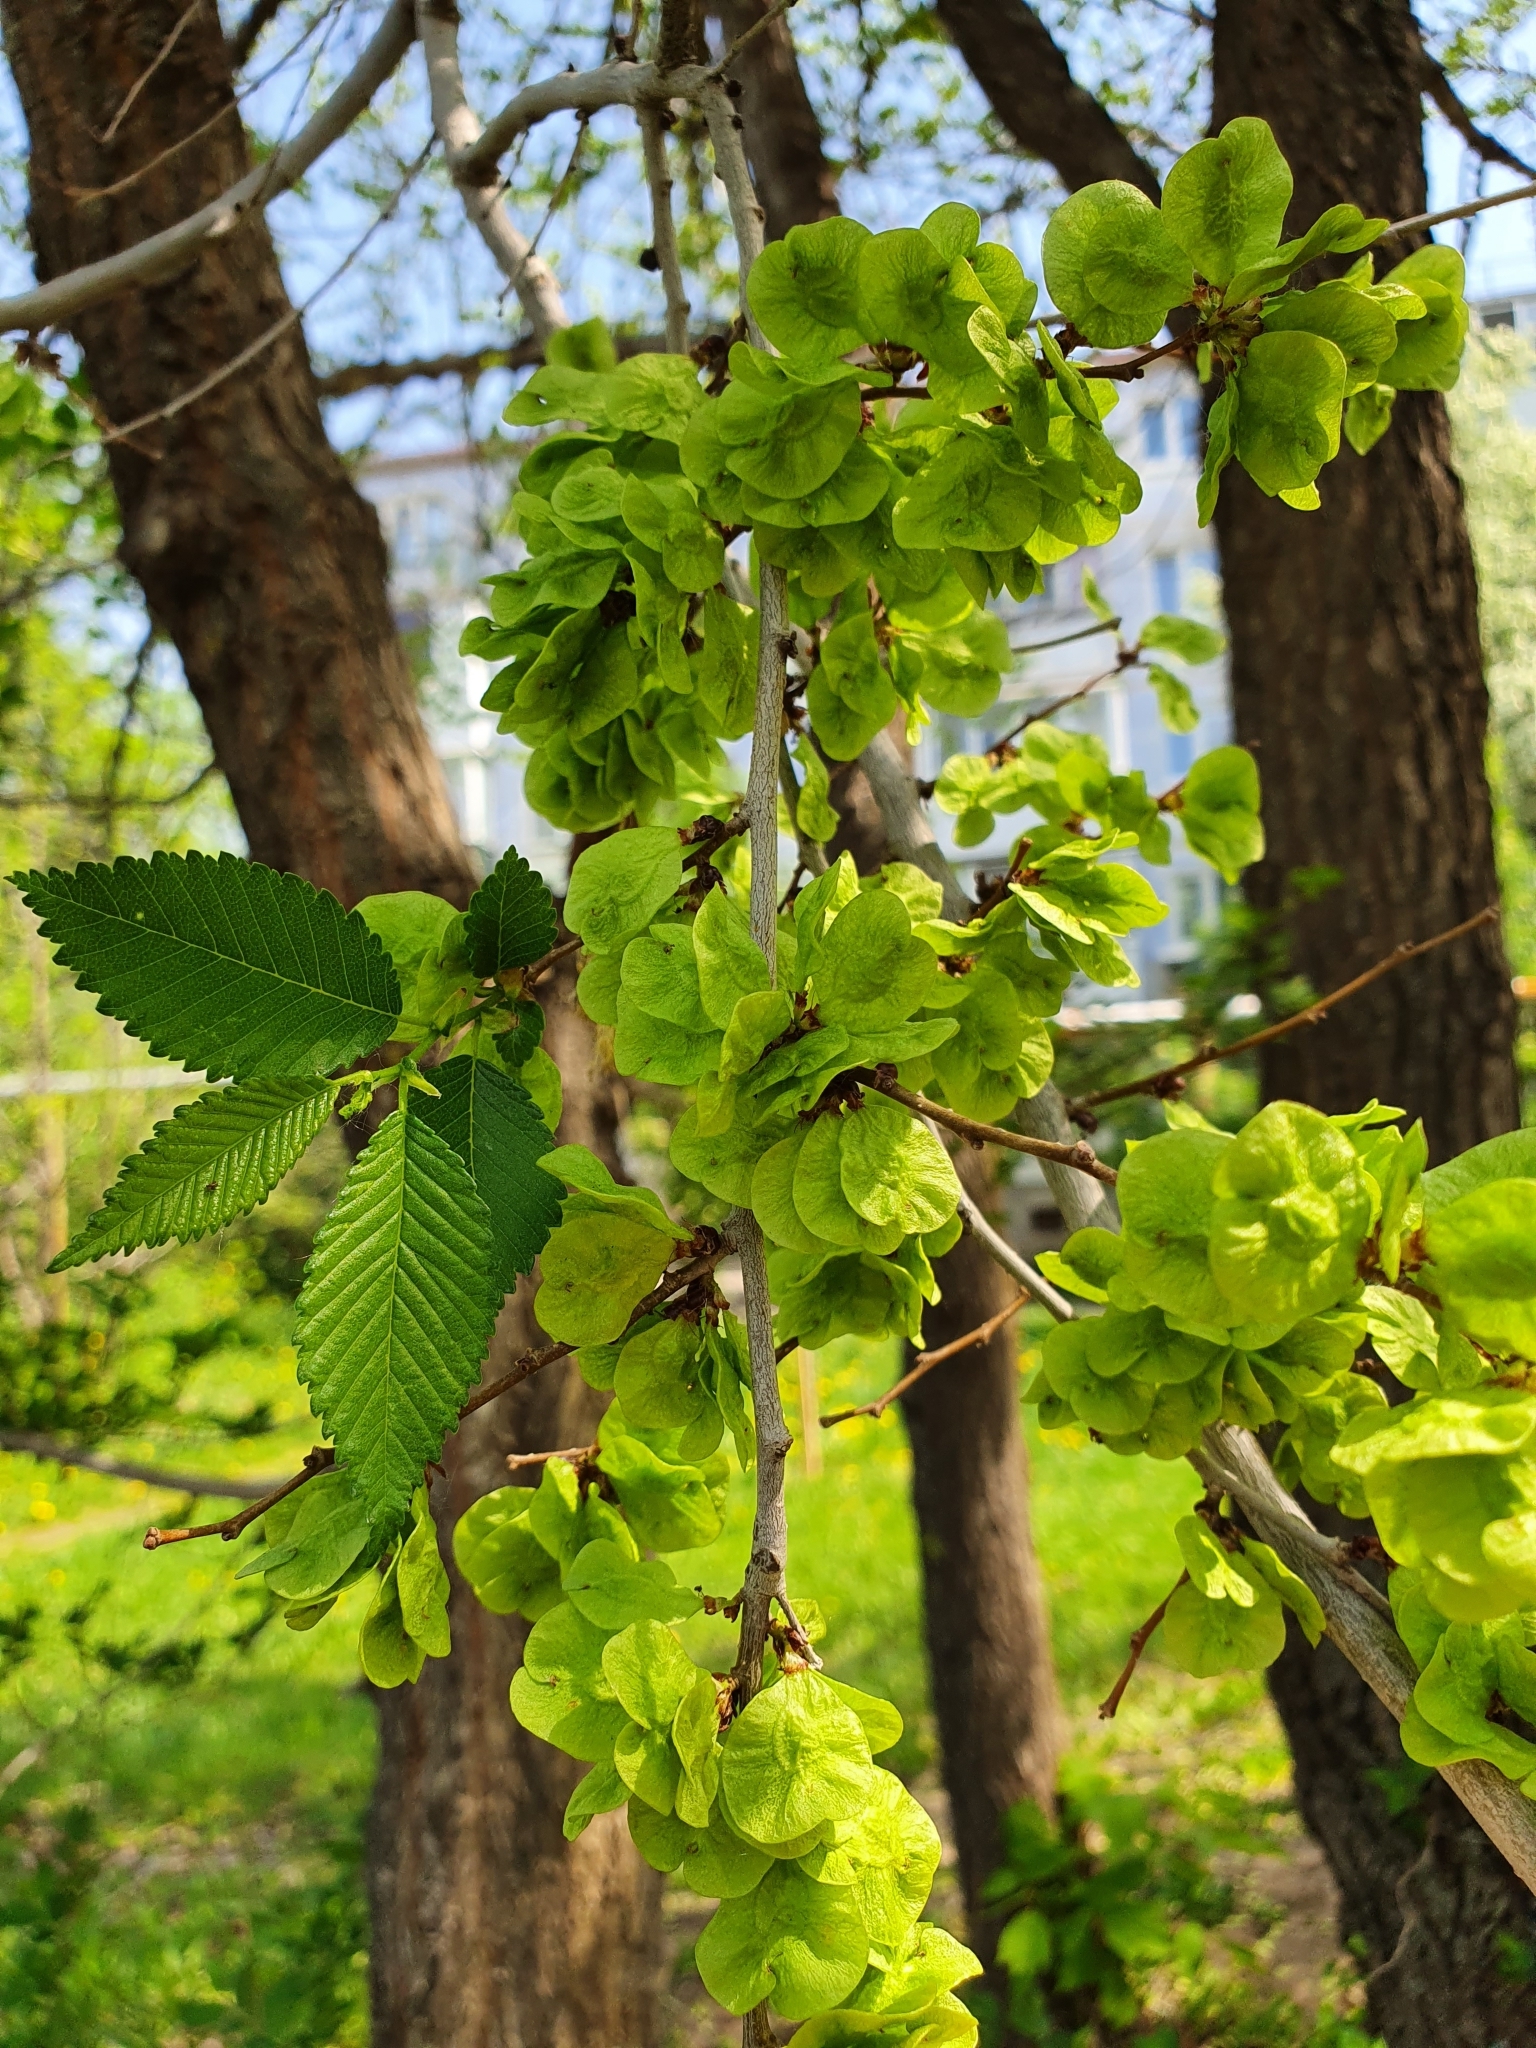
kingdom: Plantae
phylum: Tracheophyta
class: Magnoliopsida
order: Rosales
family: Ulmaceae
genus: Ulmus
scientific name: Ulmus pumila
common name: Siberian elm
